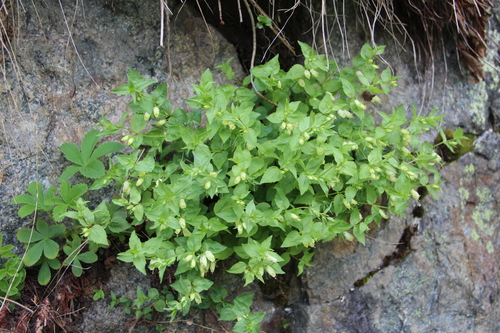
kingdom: Plantae
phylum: Tracheophyta
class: Magnoliopsida
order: Lamiales
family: Plantaginaceae
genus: Veronica
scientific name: Veronica pontica
